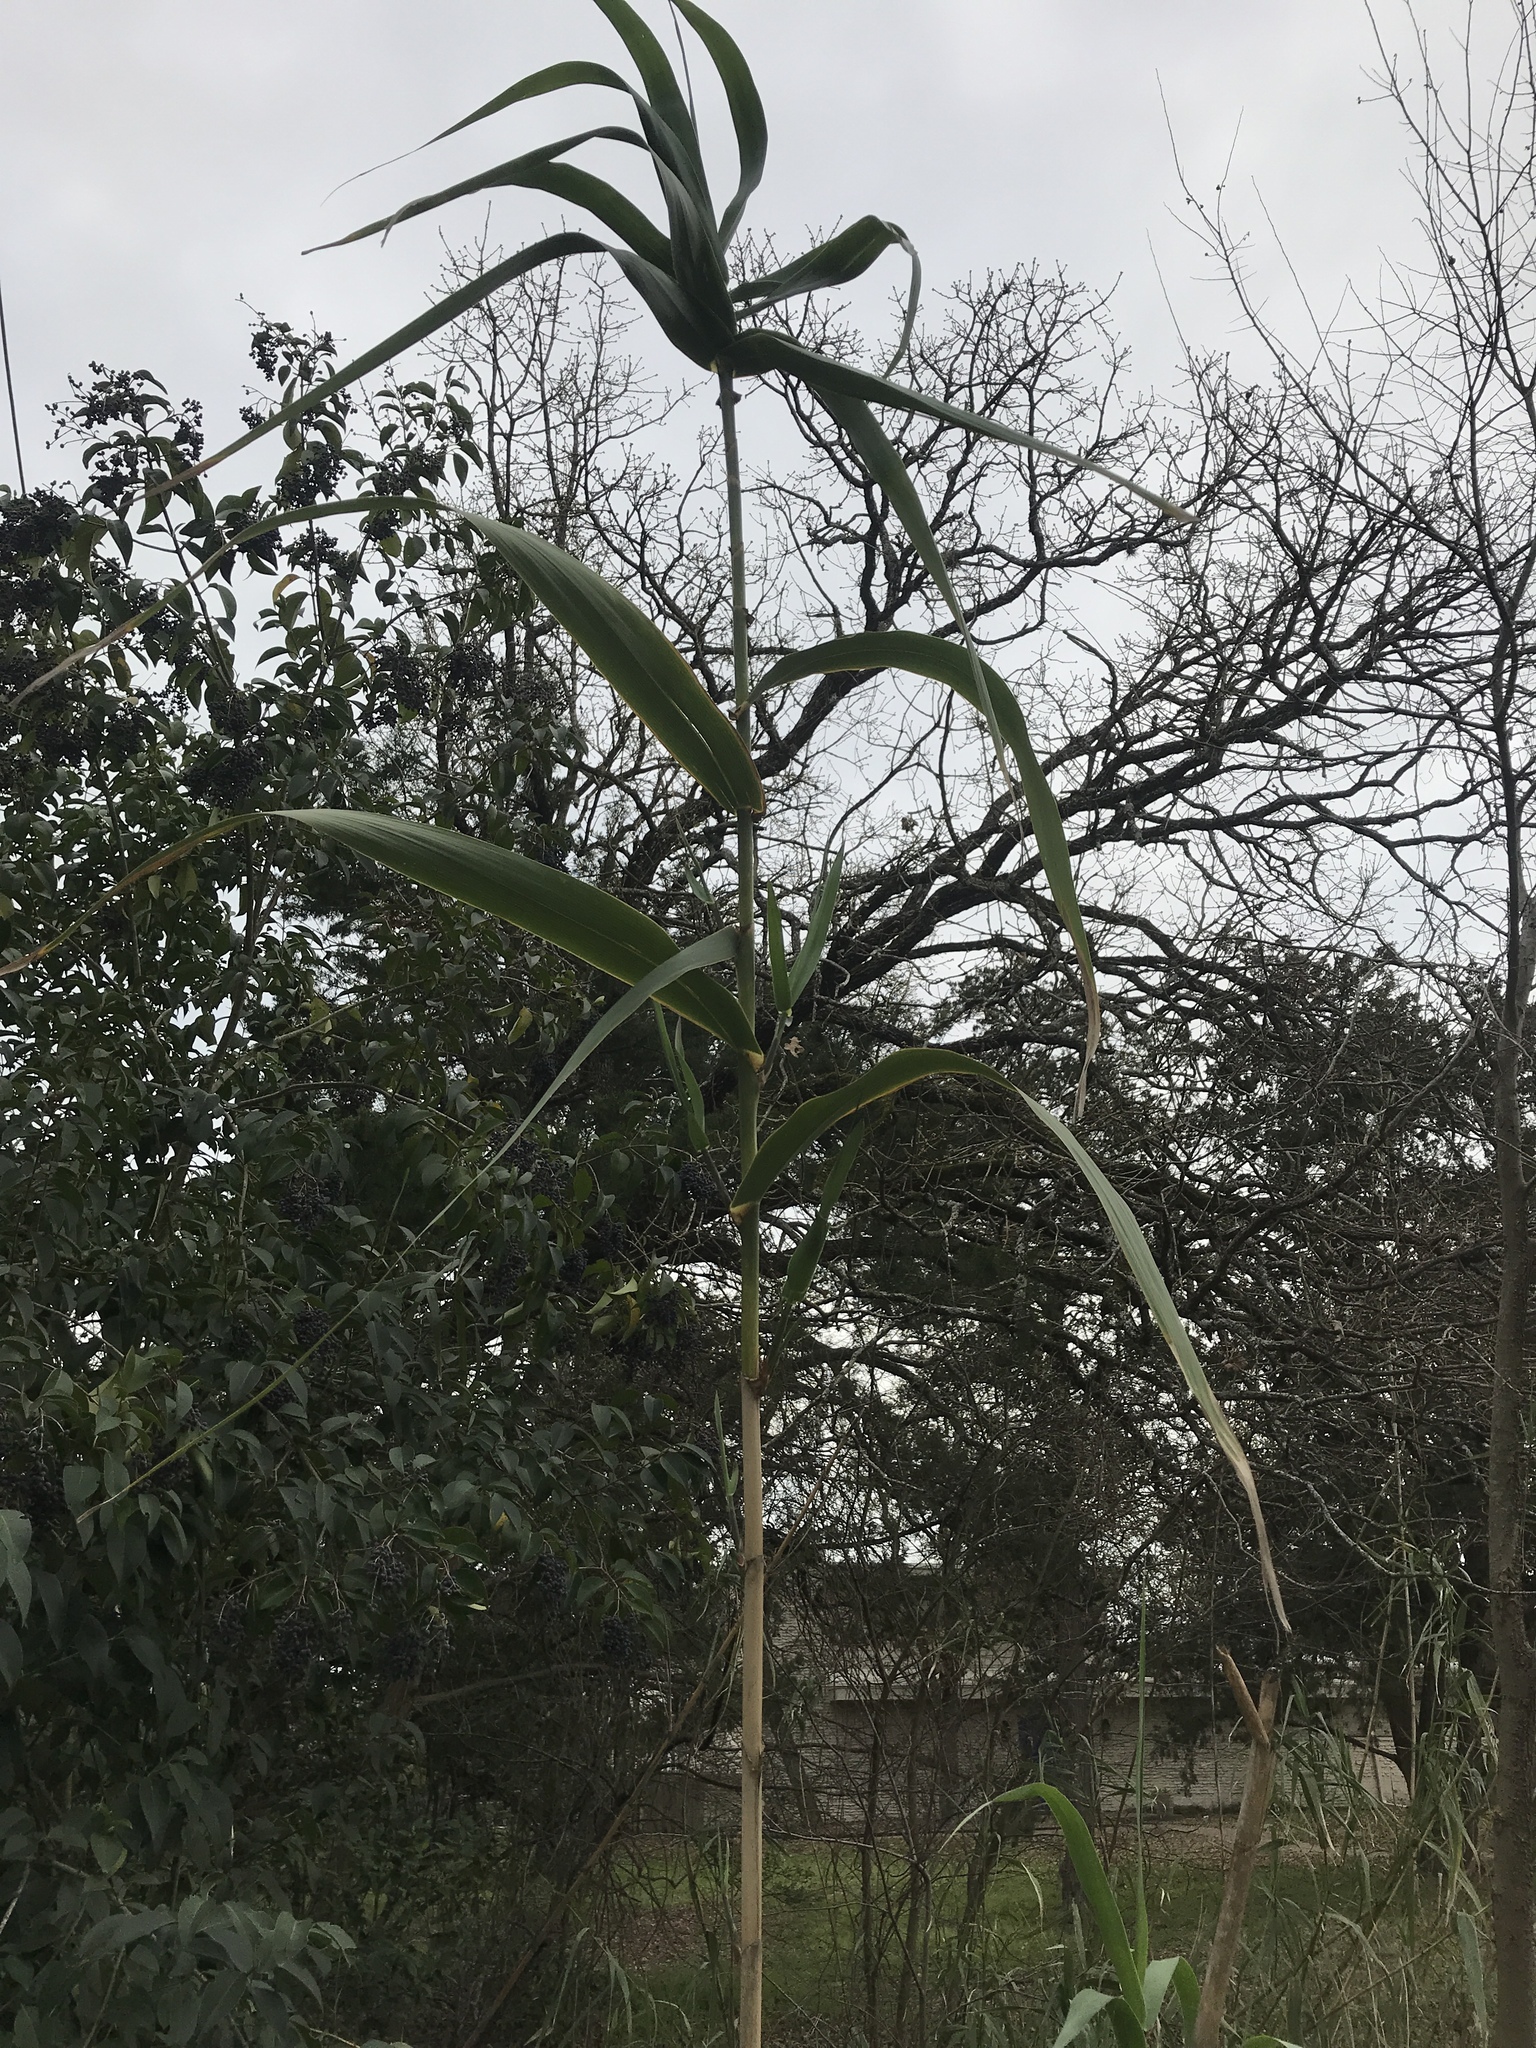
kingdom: Plantae
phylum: Tracheophyta
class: Liliopsida
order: Poales
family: Poaceae
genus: Arundo
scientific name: Arundo donax
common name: Giant reed
